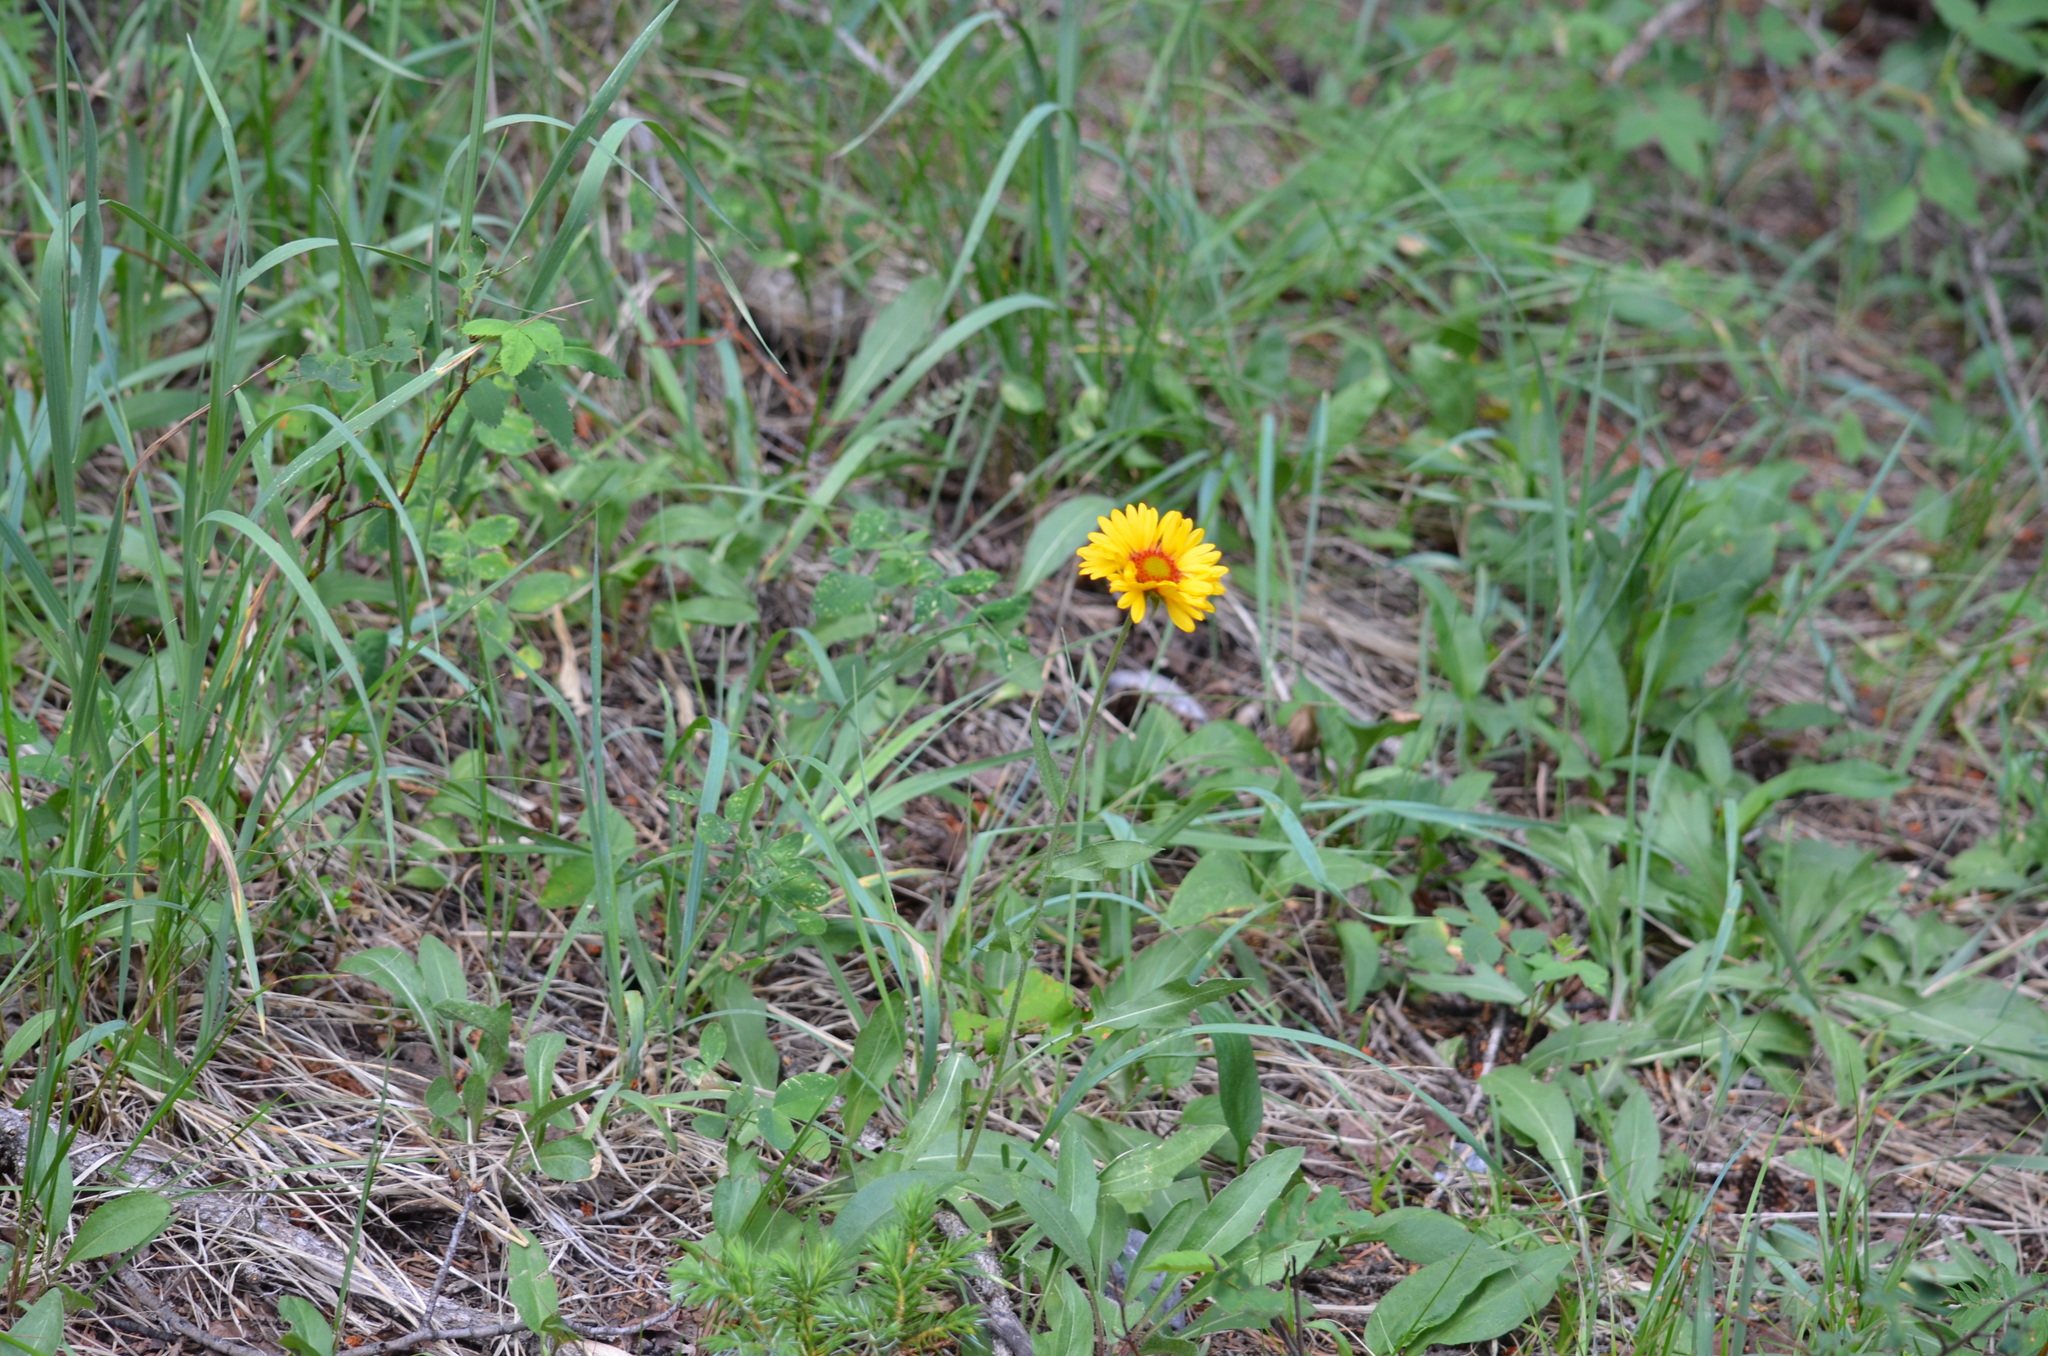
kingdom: Plantae
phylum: Tracheophyta
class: Magnoliopsida
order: Asterales
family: Asteraceae
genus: Gaillardia
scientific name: Gaillardia aristata
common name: Blanket-flower
